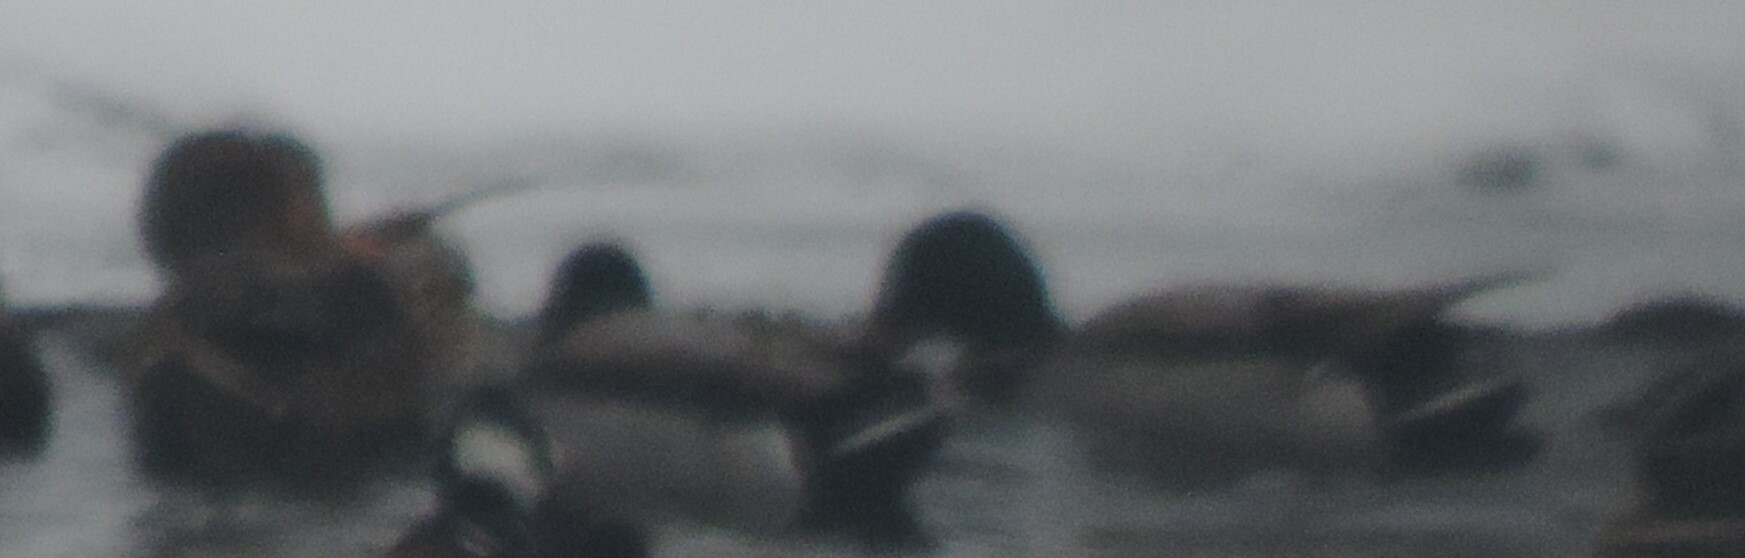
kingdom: Animalia
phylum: Chordata
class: Aves
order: Anseriformes
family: Anatidae
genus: Anas
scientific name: Anas platyrhynchos
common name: Mallard
